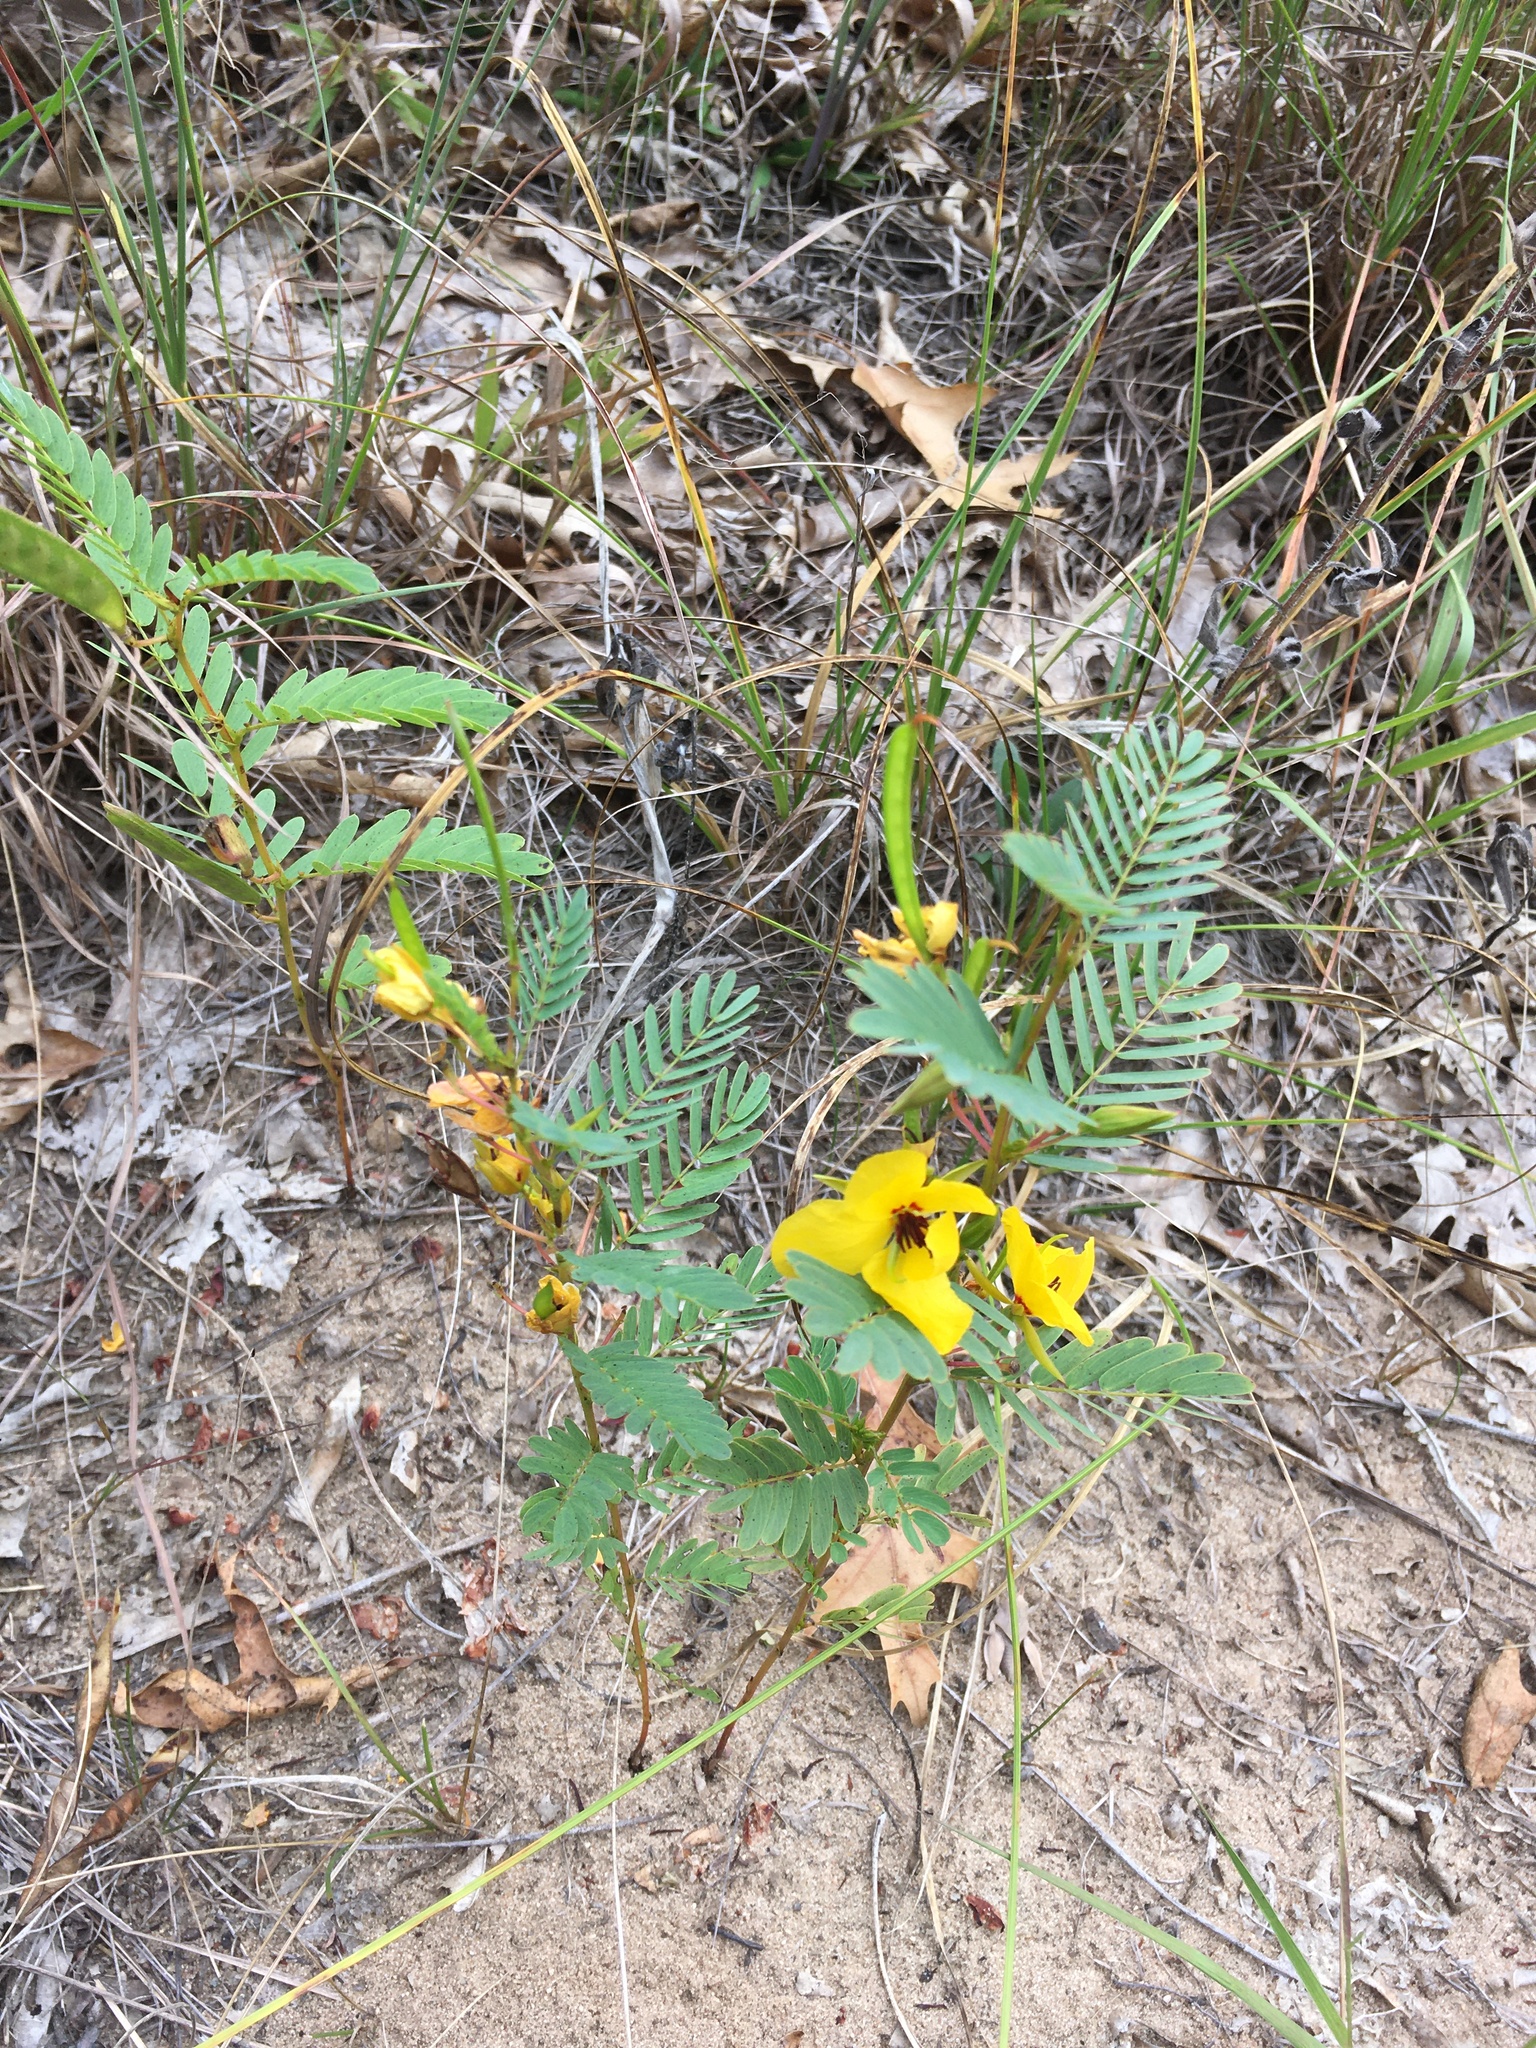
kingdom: Plantae
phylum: Tracheophyta
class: Magnoliopsida
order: Fabales
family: Fabaceae
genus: Chamaecrista
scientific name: Chamaecrista fasciculata
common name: Golden cassia
